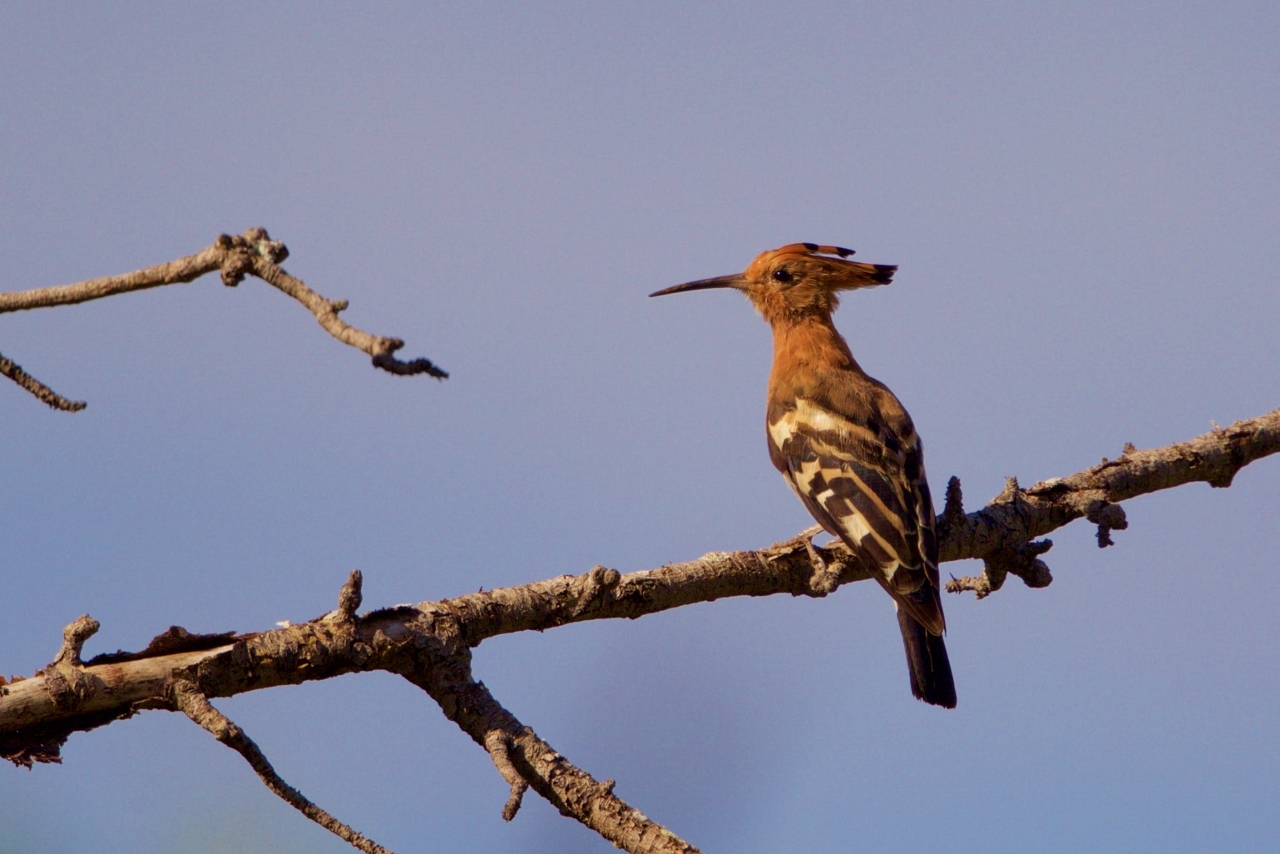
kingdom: Animalia
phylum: Chordata
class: Aves
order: Bucerotiformes
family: Upupidae
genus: Upupa
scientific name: Upupa africana
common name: African hoopoe
